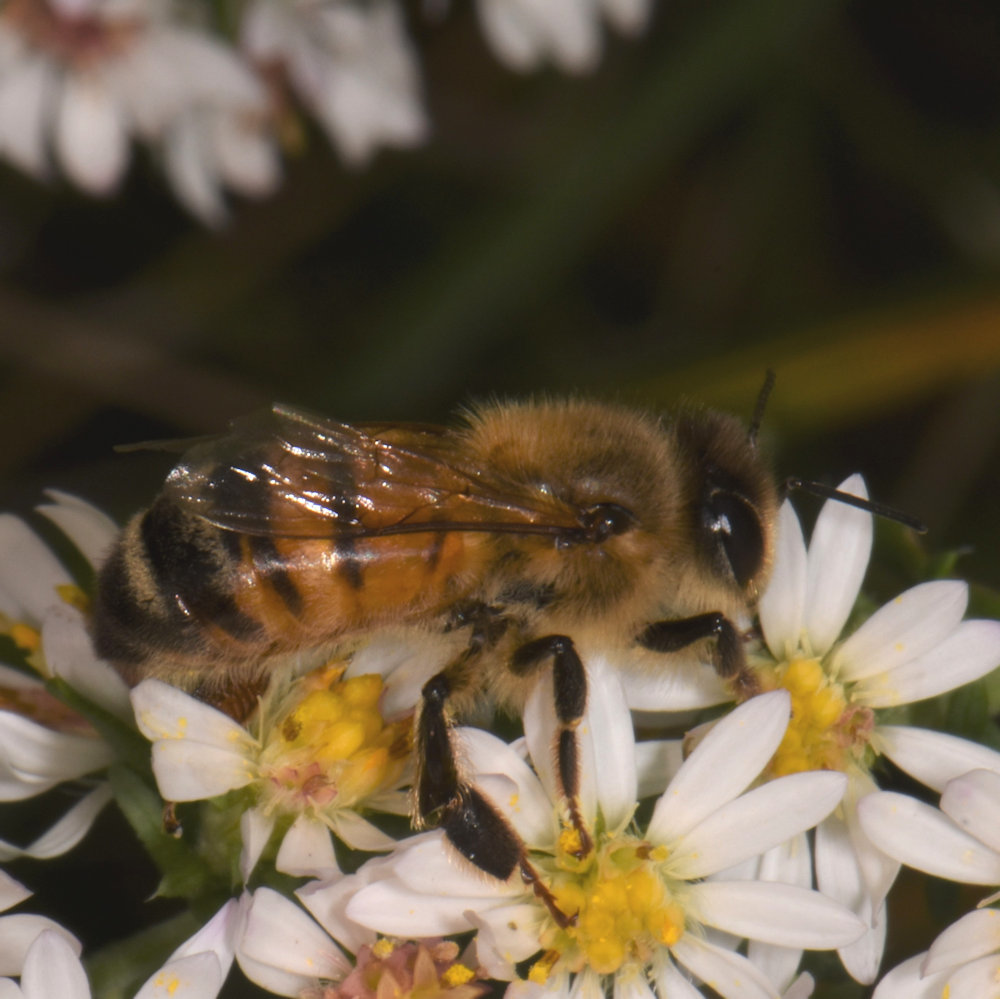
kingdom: Animalia
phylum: Arthropoda
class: Insecta
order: Hymenoptera
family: Apidae
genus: Apis
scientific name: Apis mellifera
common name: Honey bee
